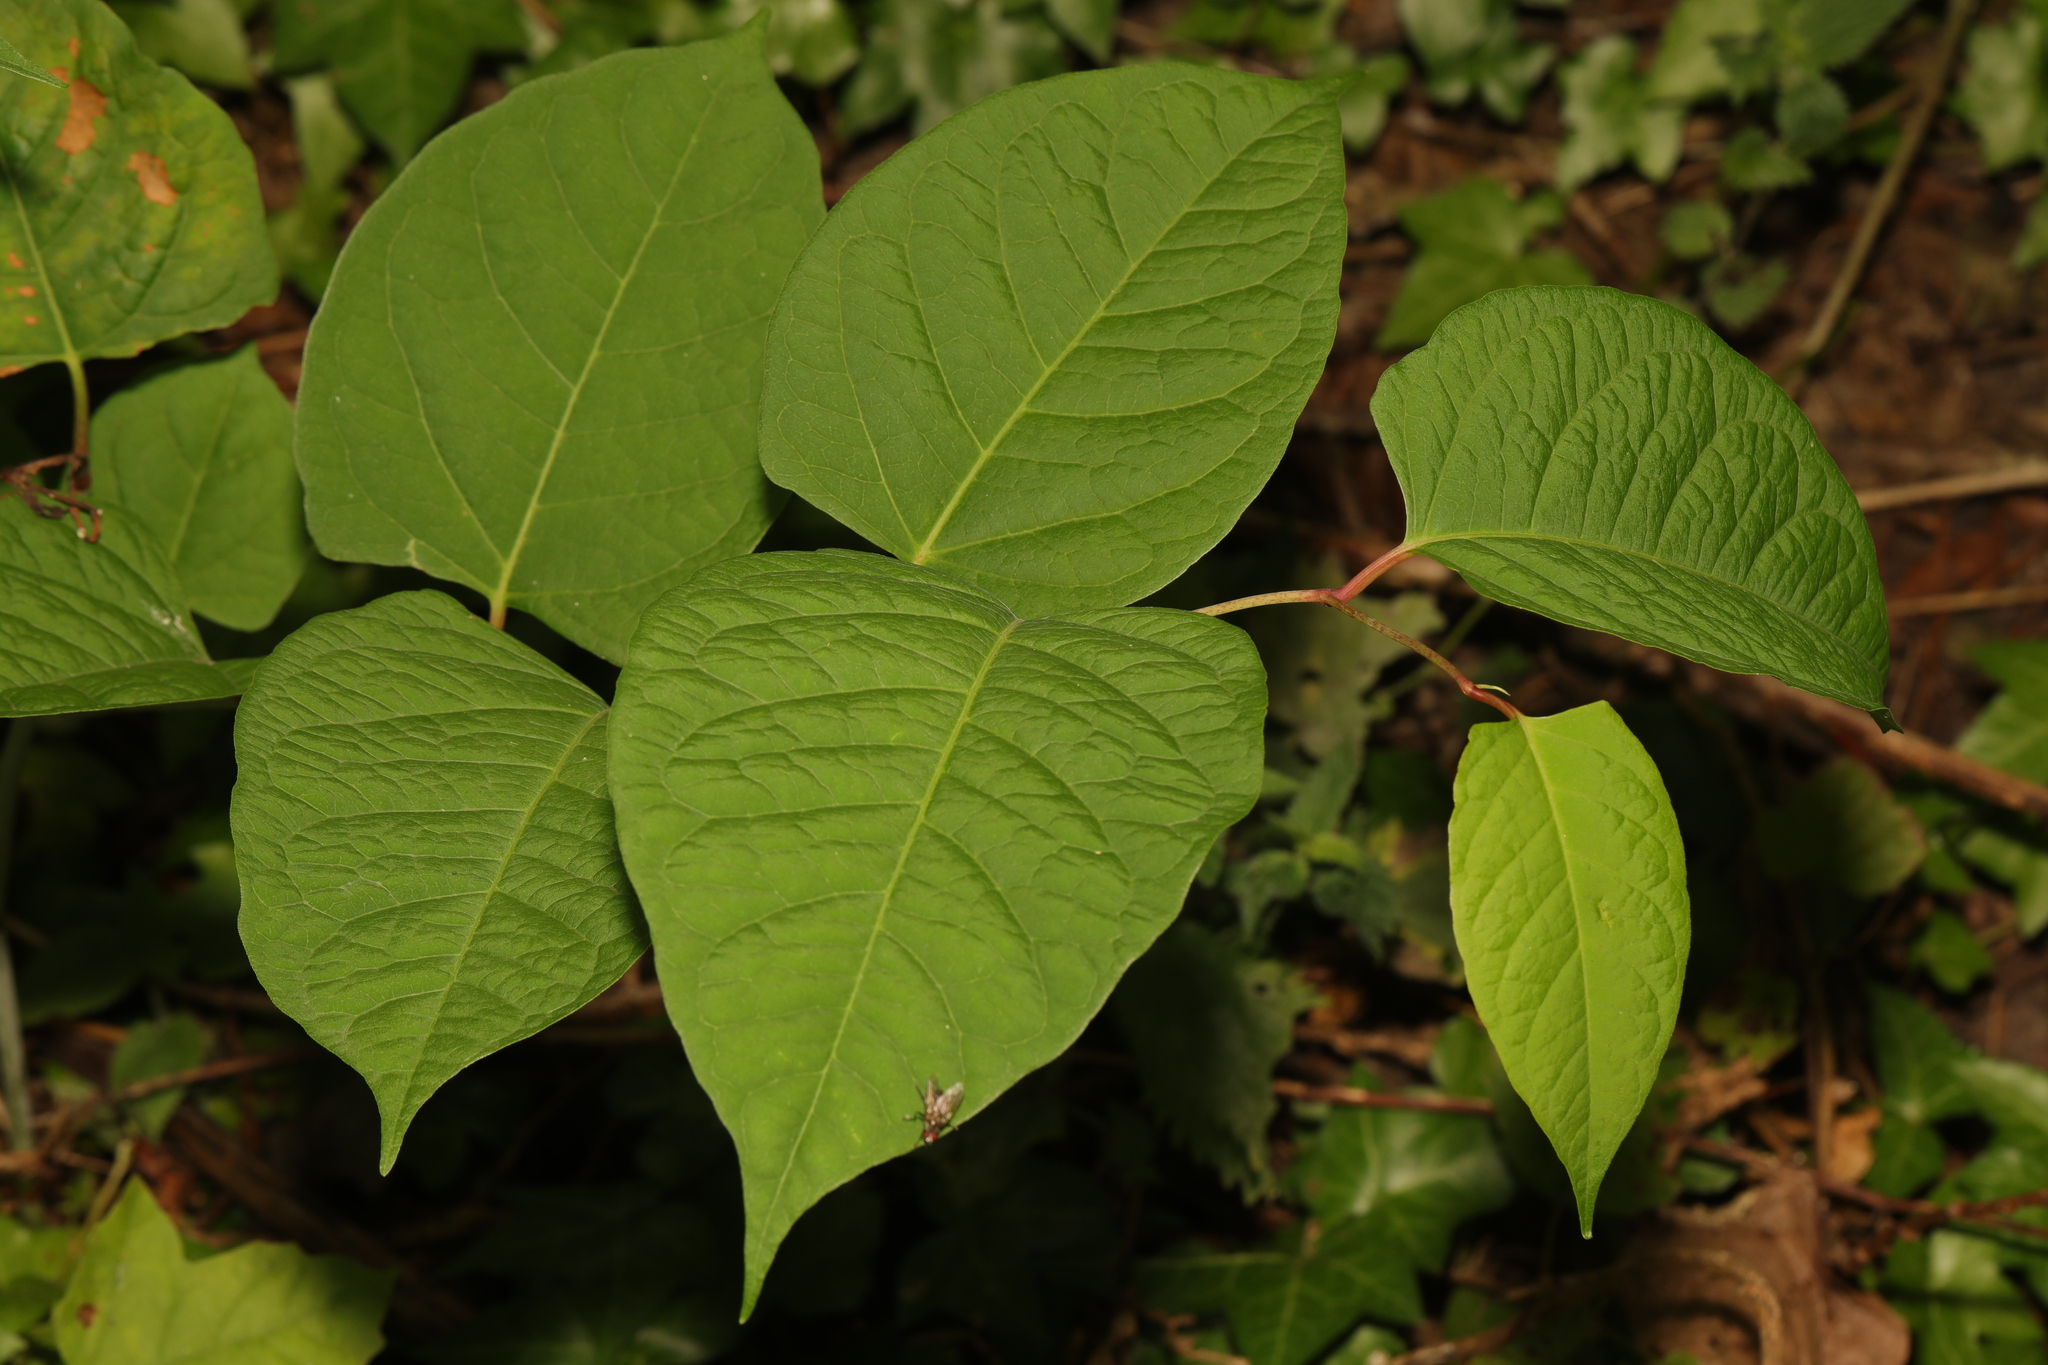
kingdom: Plantae
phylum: Tracheophyta
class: Magnoliopsida
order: Caryophyllales
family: Polygonaceae
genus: Reynoutria
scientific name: Reynoutria japonica
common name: Japanese knotweed
